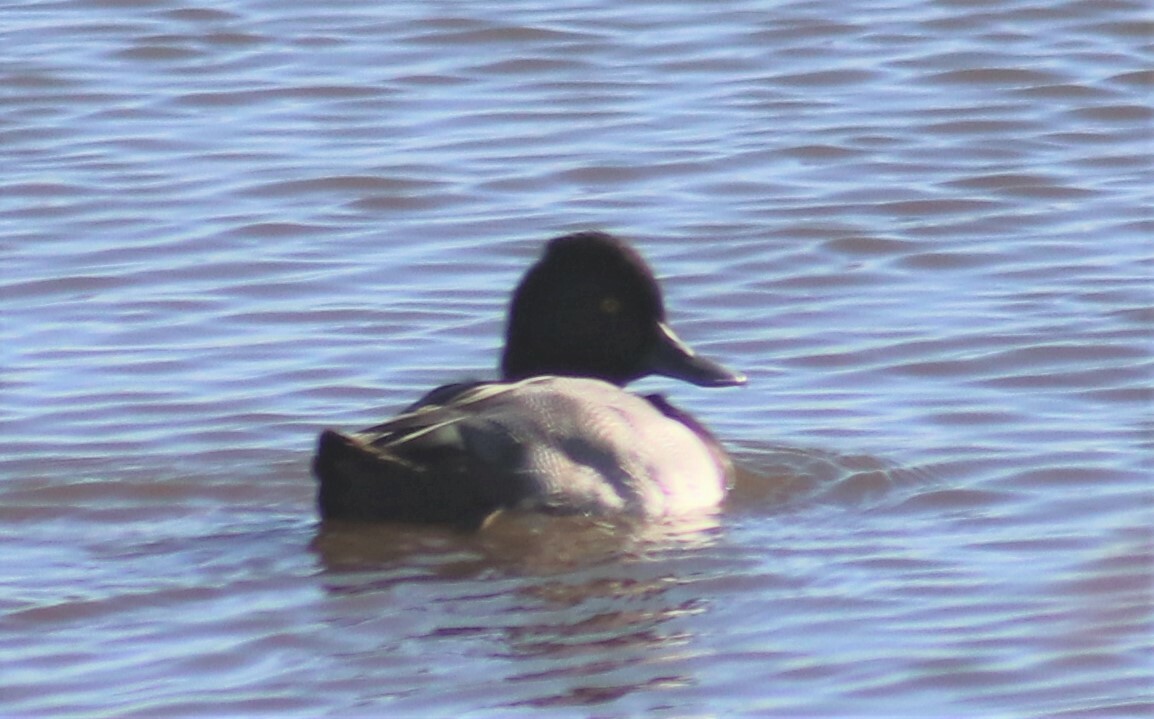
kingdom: Animalia
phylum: Chordata
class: Aves
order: Anseriformes
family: Anatidae
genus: Aythya
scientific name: Aythya affinis
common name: Lesser scaup
